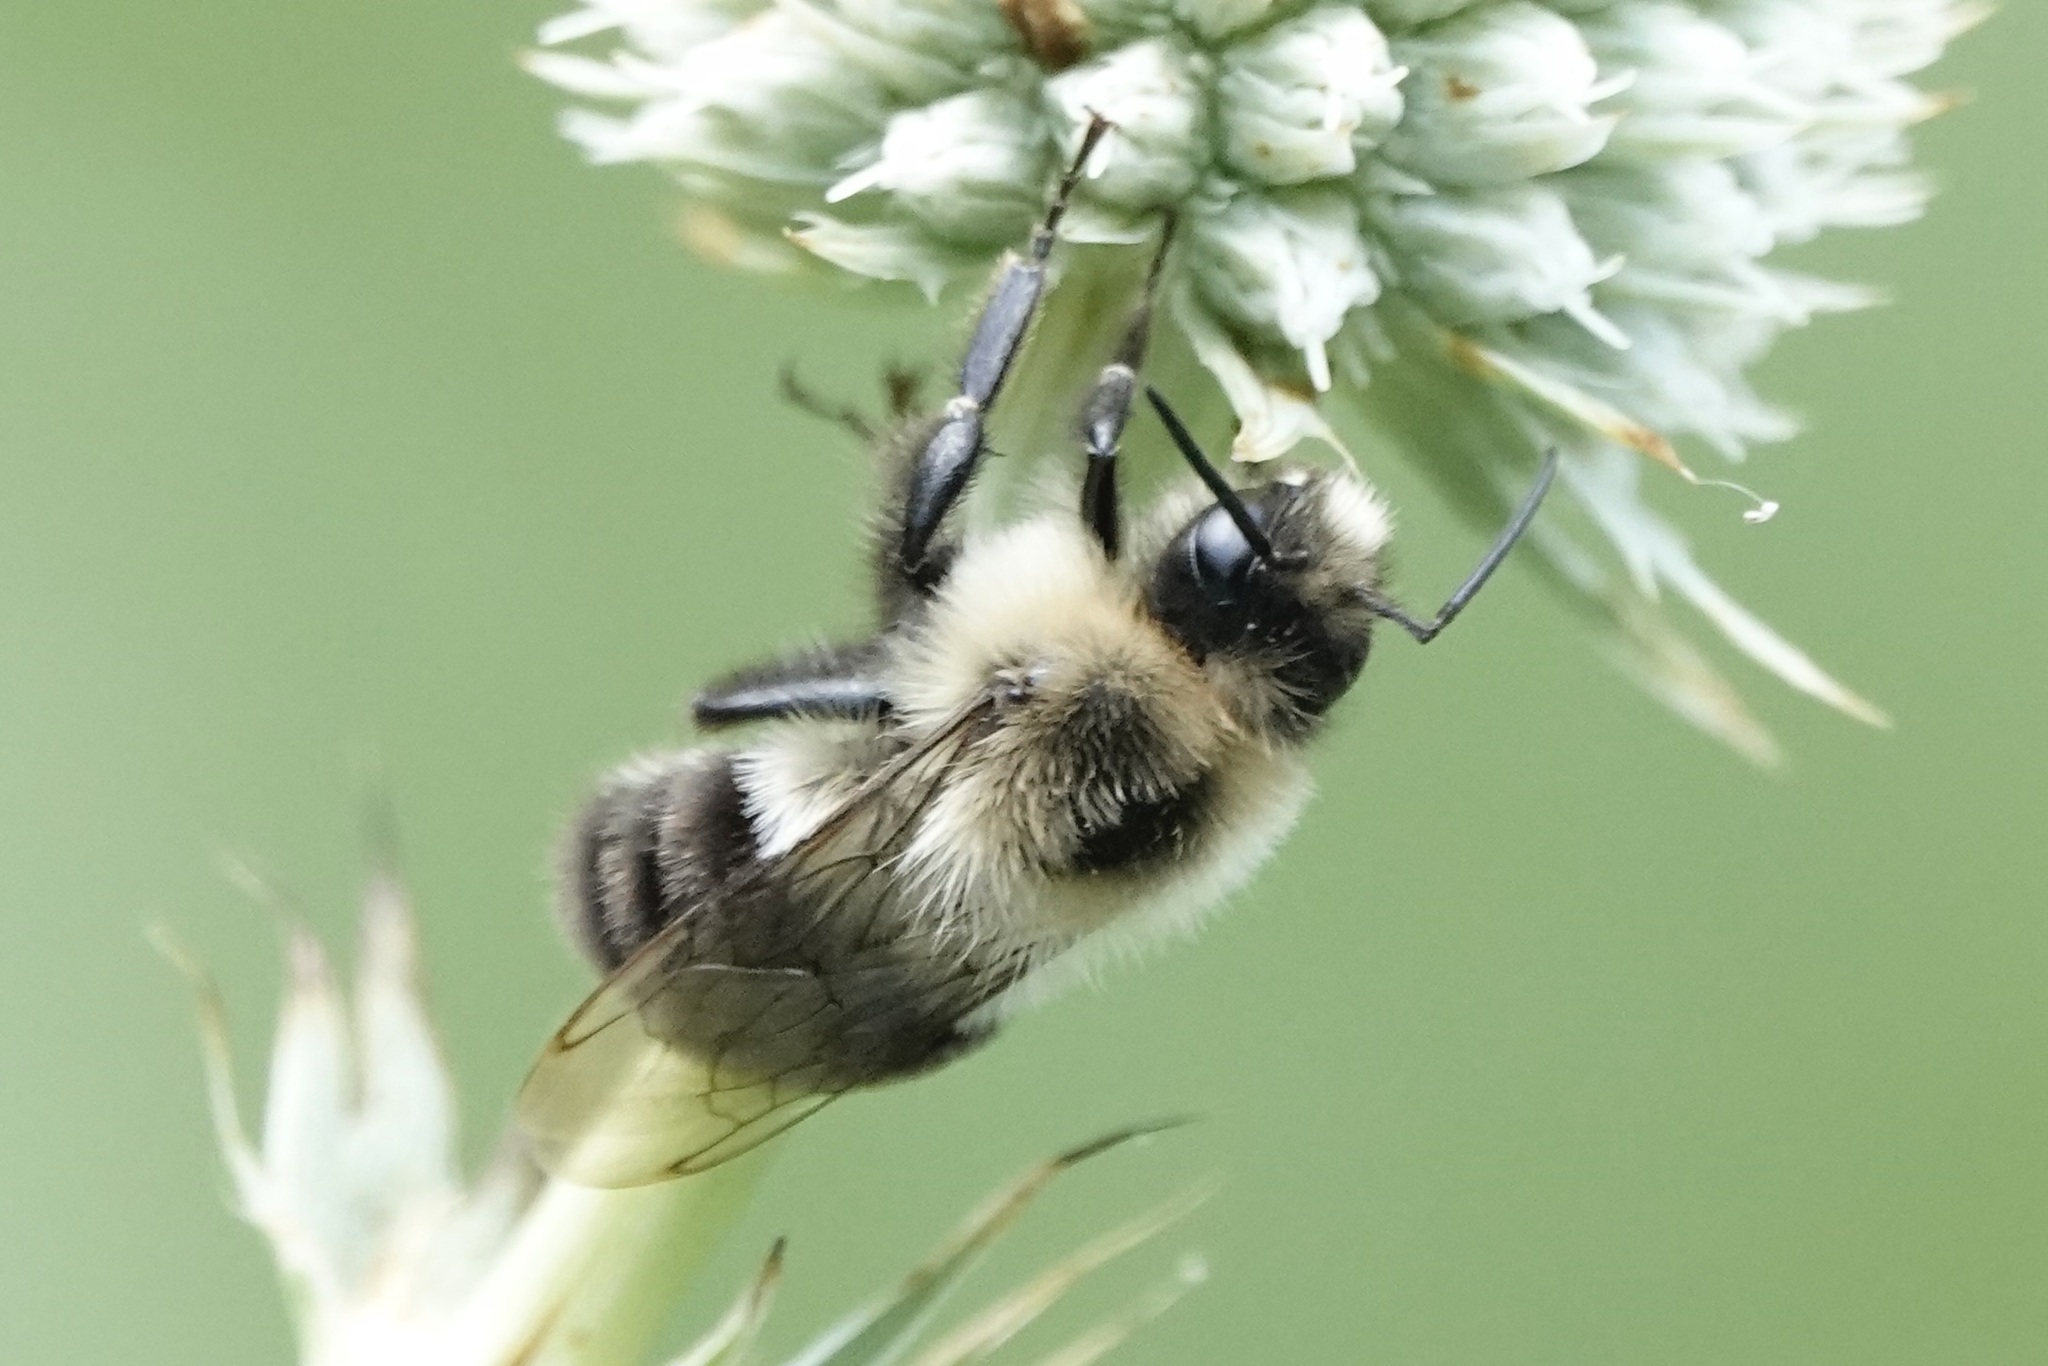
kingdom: Animalia
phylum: Arthropoda
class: Insecta
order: Hymenoptera
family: Apidae
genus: Bombus
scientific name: Bombus impatiens
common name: Common eastern bumble bee
